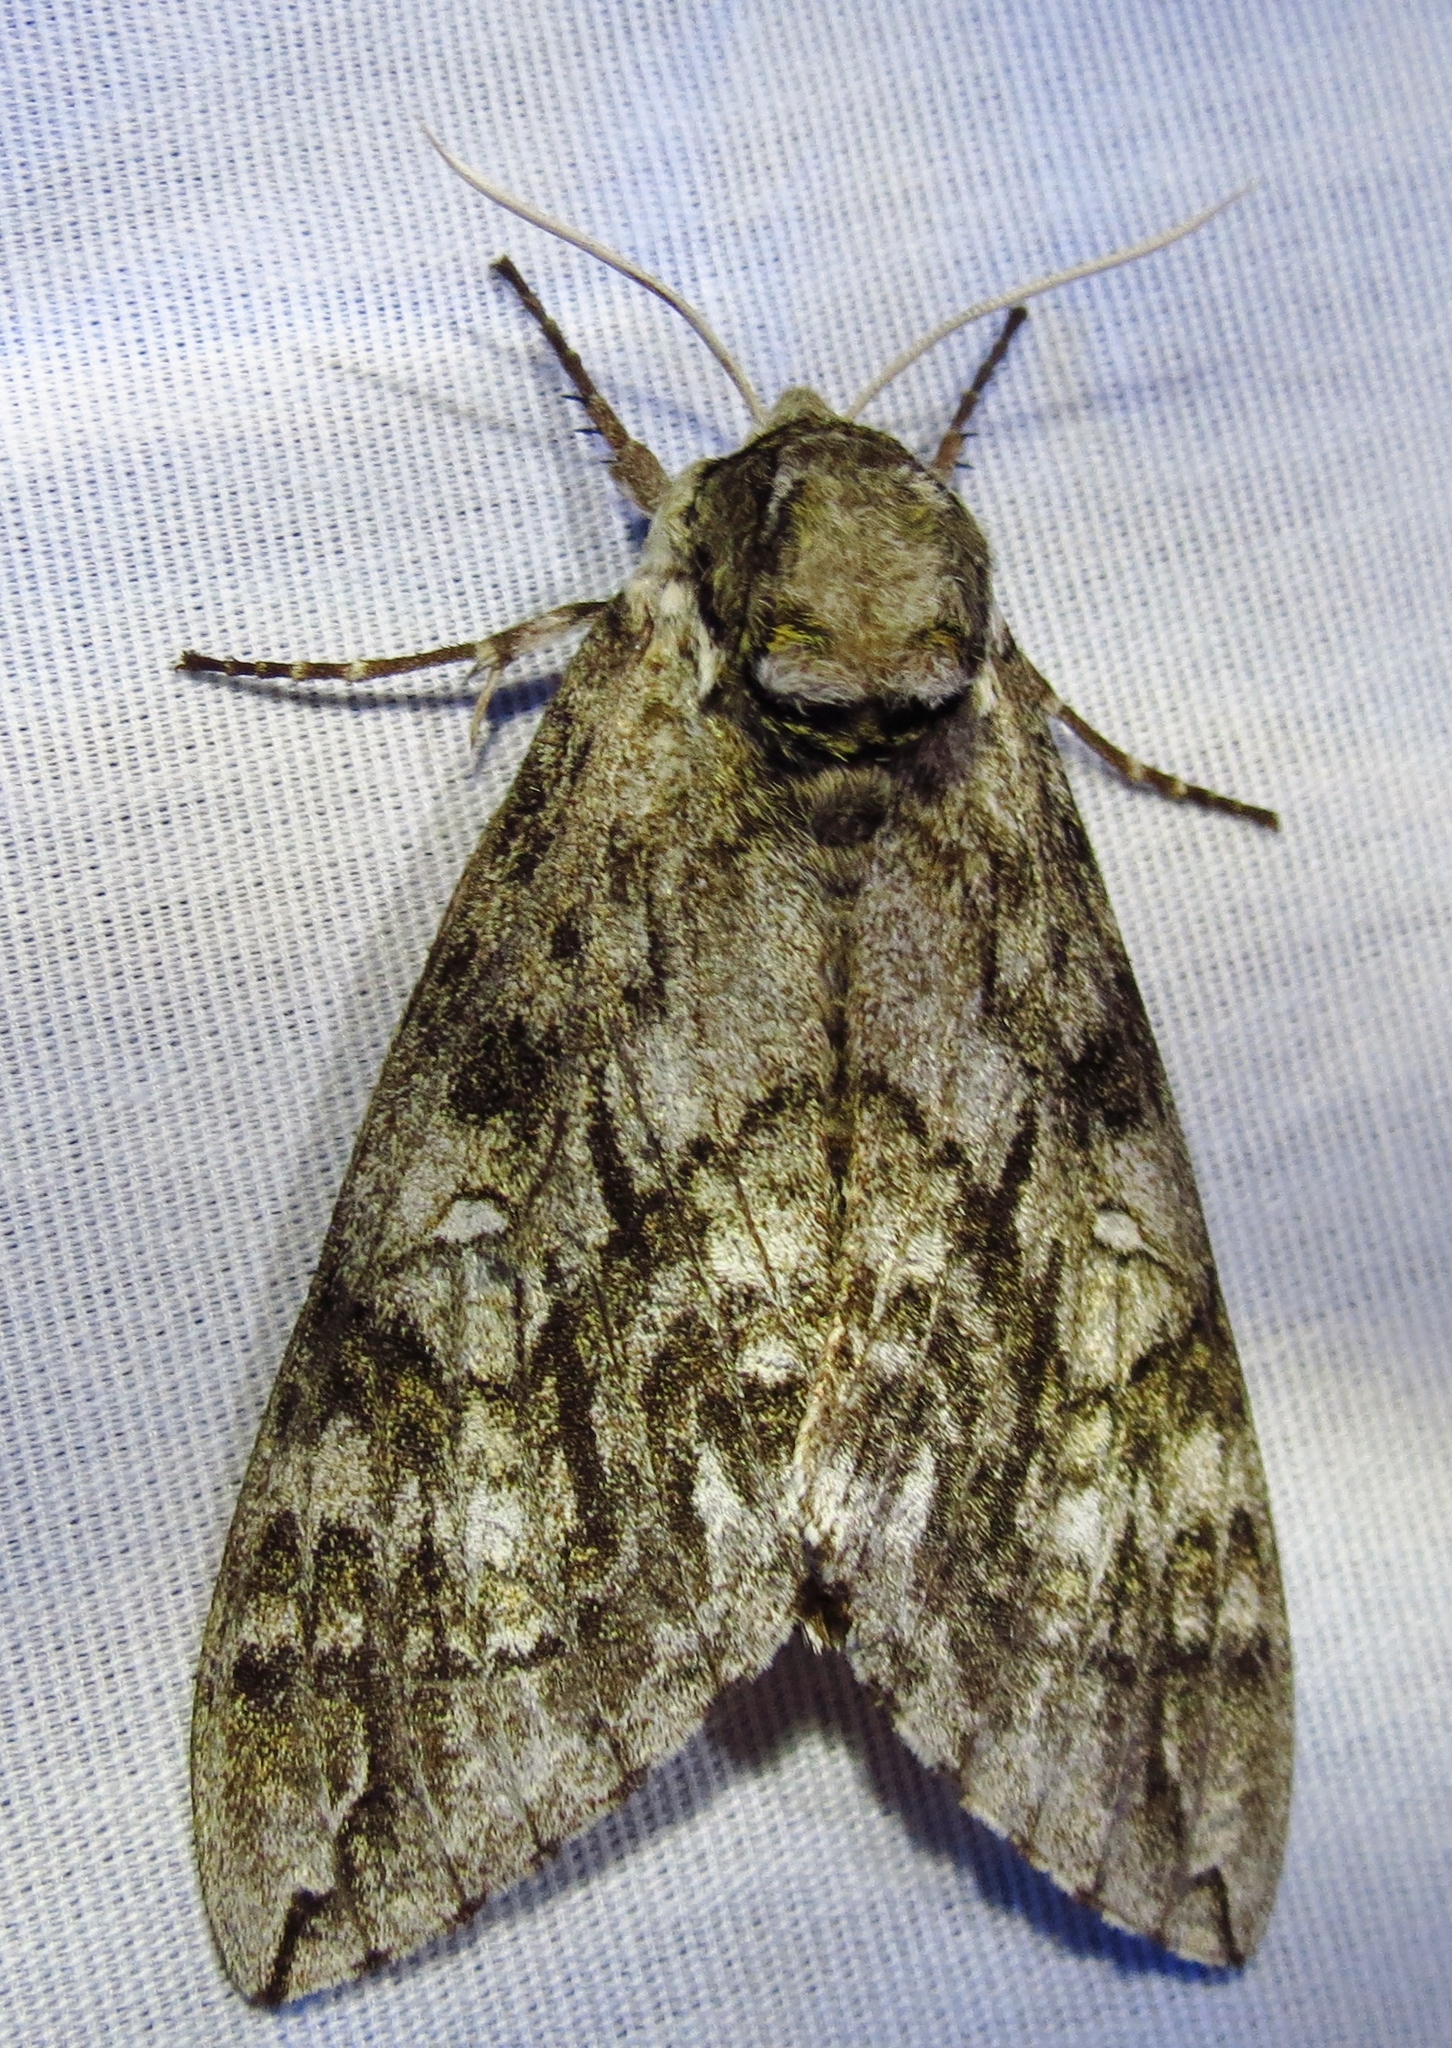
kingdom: Animalia
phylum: Arthropoda
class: Insecta
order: Lepidoptera
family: Sphingidae
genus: Ceratomia
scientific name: Ceratomia undulosa
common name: Waved sphinx
